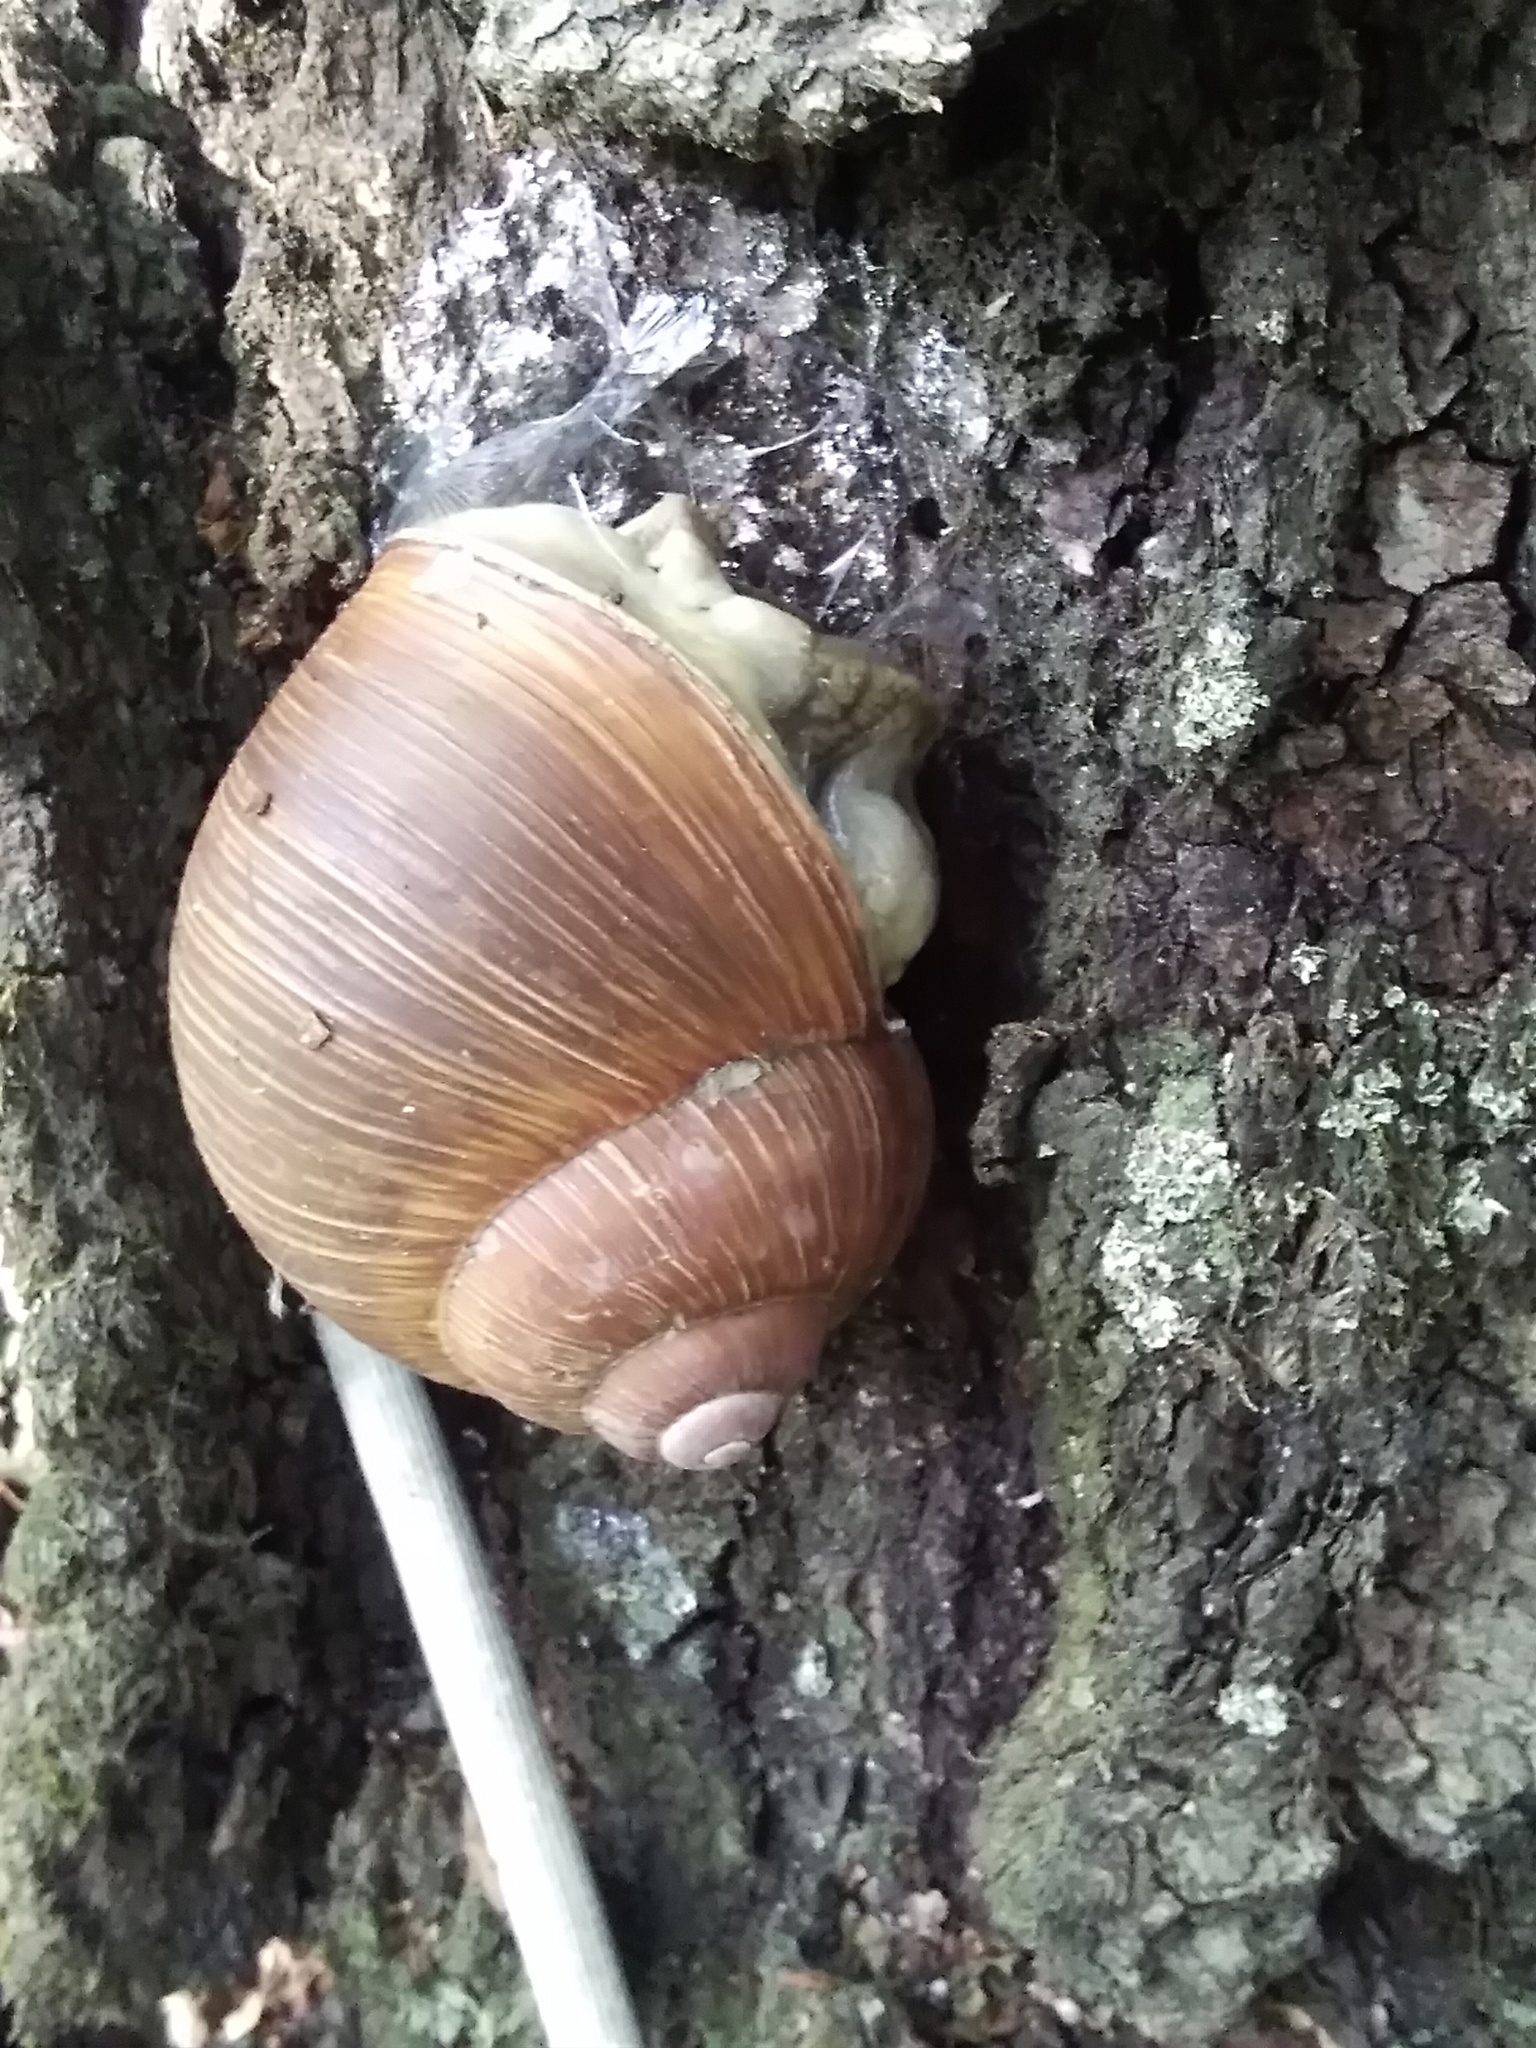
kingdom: Animalia
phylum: Mollusca
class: Gastropoda
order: Stylommatophora
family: Helicidae
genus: Helix
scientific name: Helix pomatia
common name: Roman snail
